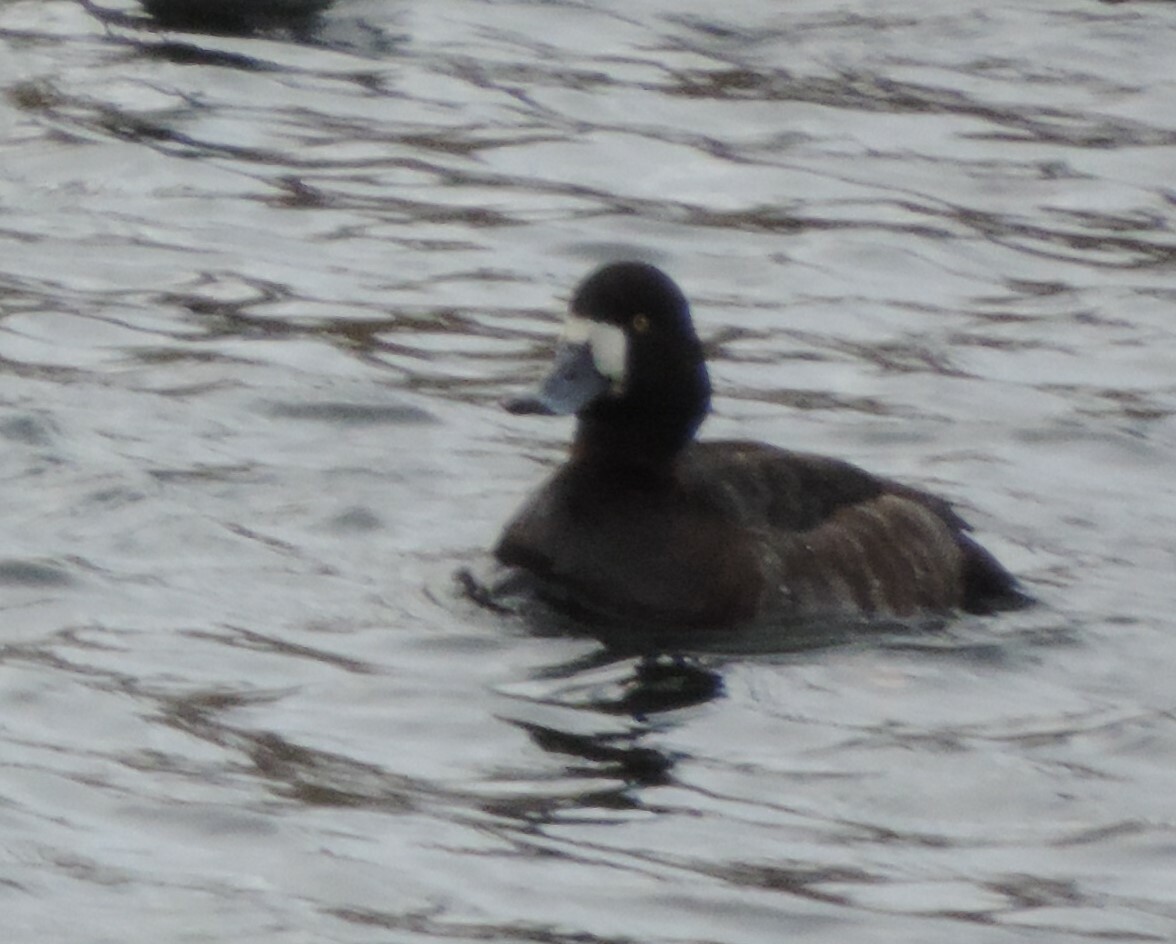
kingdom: Animalia
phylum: Chordata
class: Aves
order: Anseriformes
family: Anatidae
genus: Aythya
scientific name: Aythya marila
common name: Greater scaup
